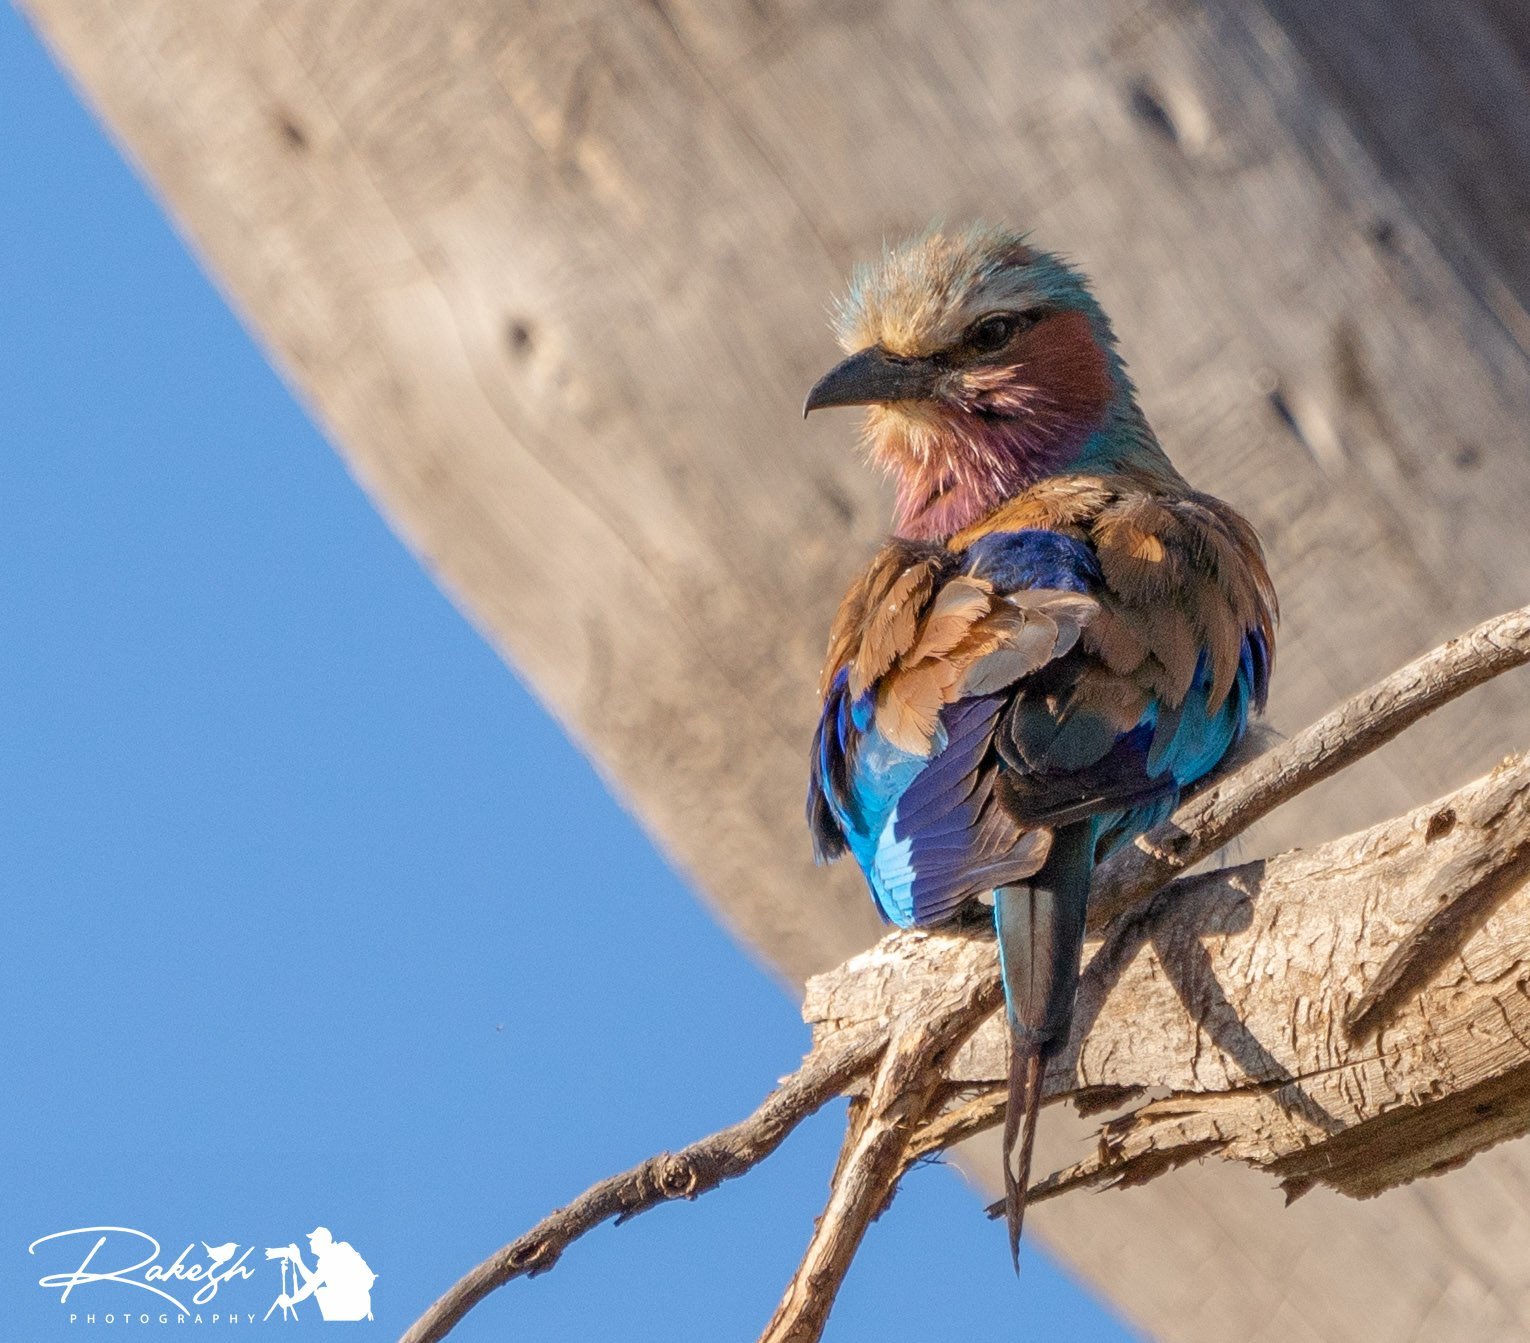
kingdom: Animalia
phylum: Chordata
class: Aves
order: Coraciiformes
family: Coraciidae
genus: Coracias
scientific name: Coracias caudatus
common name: Lilac-breasted roller
